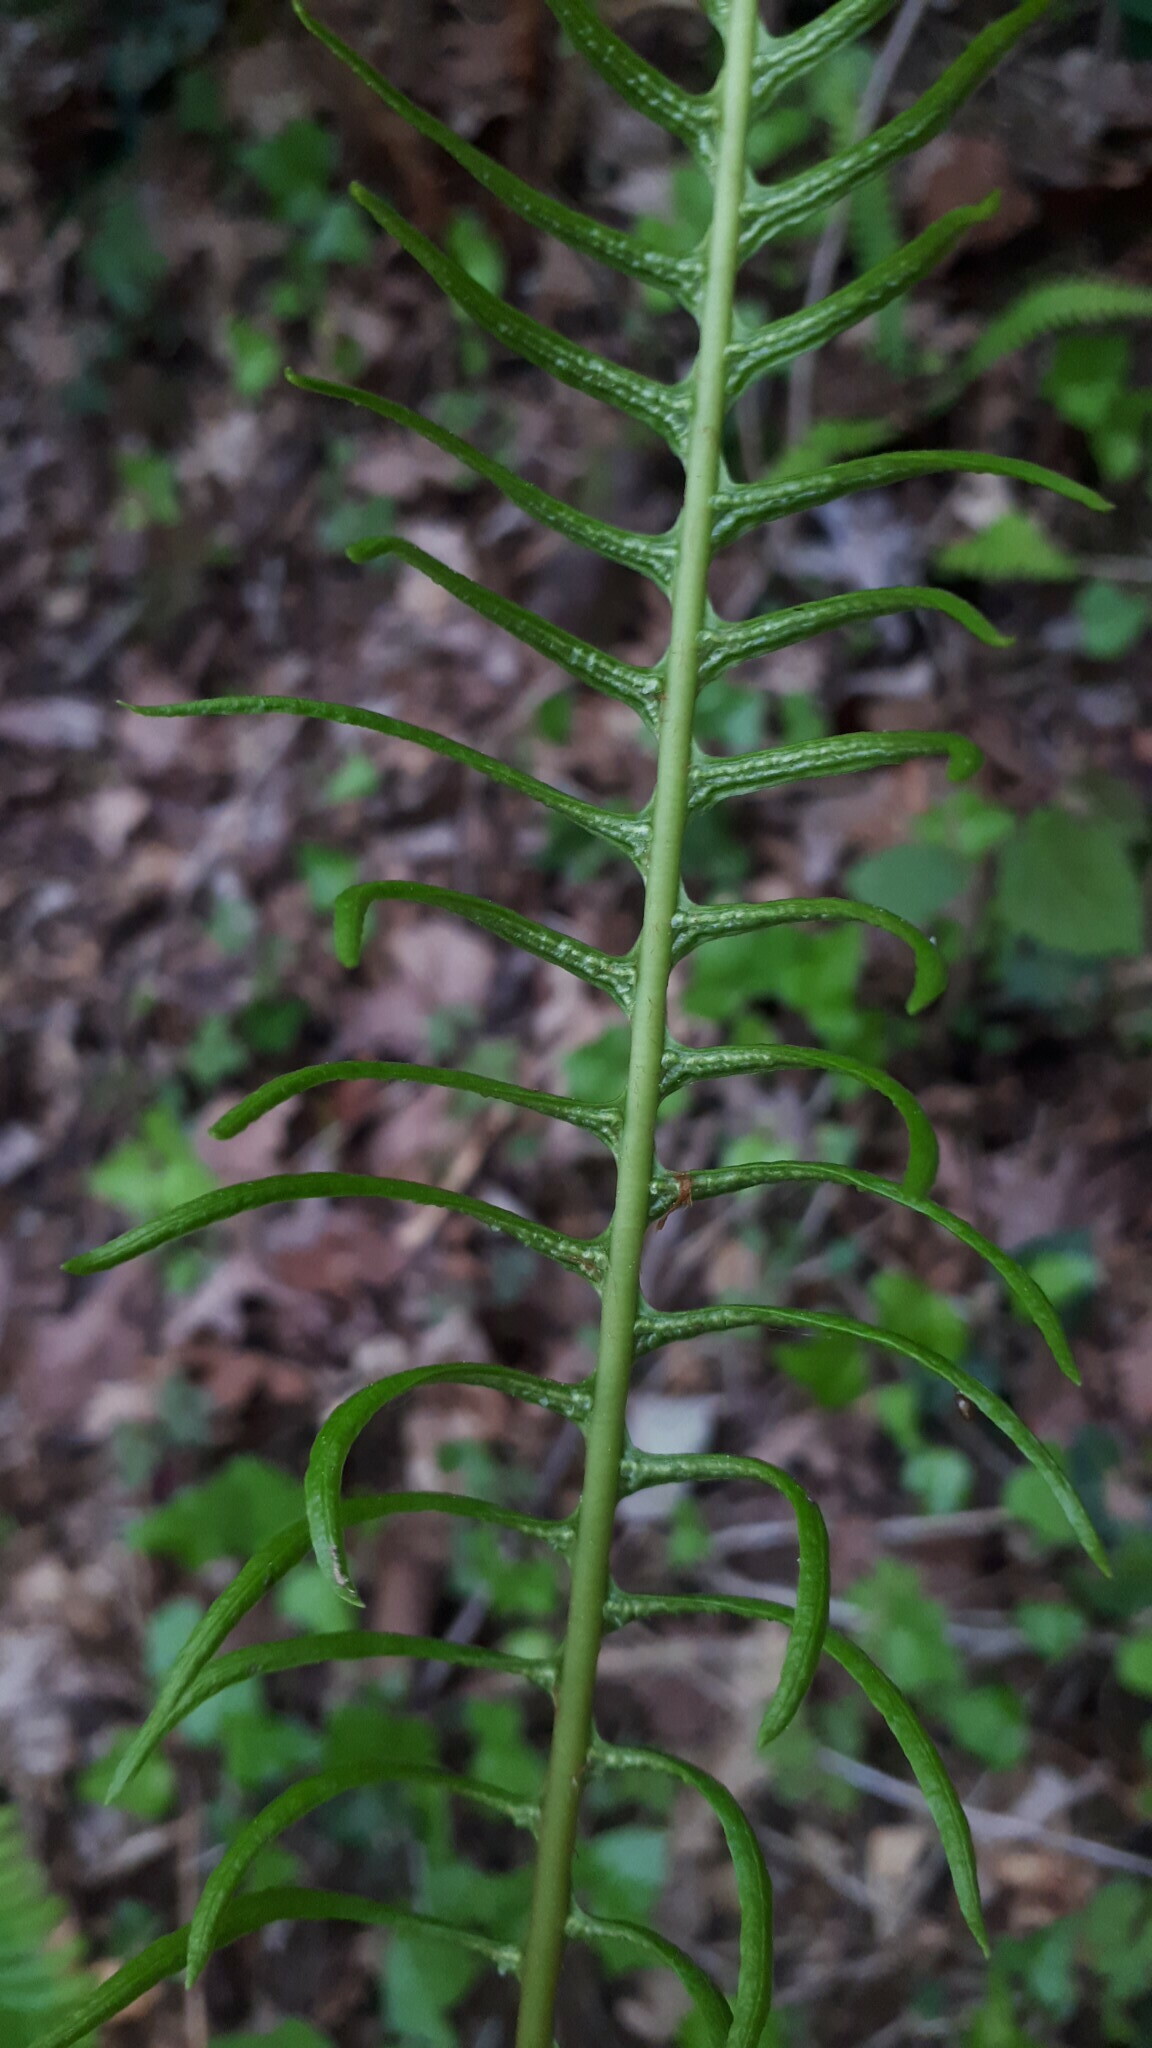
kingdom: Plantae
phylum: Tracheophyta
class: Polypodiopsida
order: Polypodiales
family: Blechnaceae
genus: Struthiopteris
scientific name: Struthiopteris spicant
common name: Deer fern
